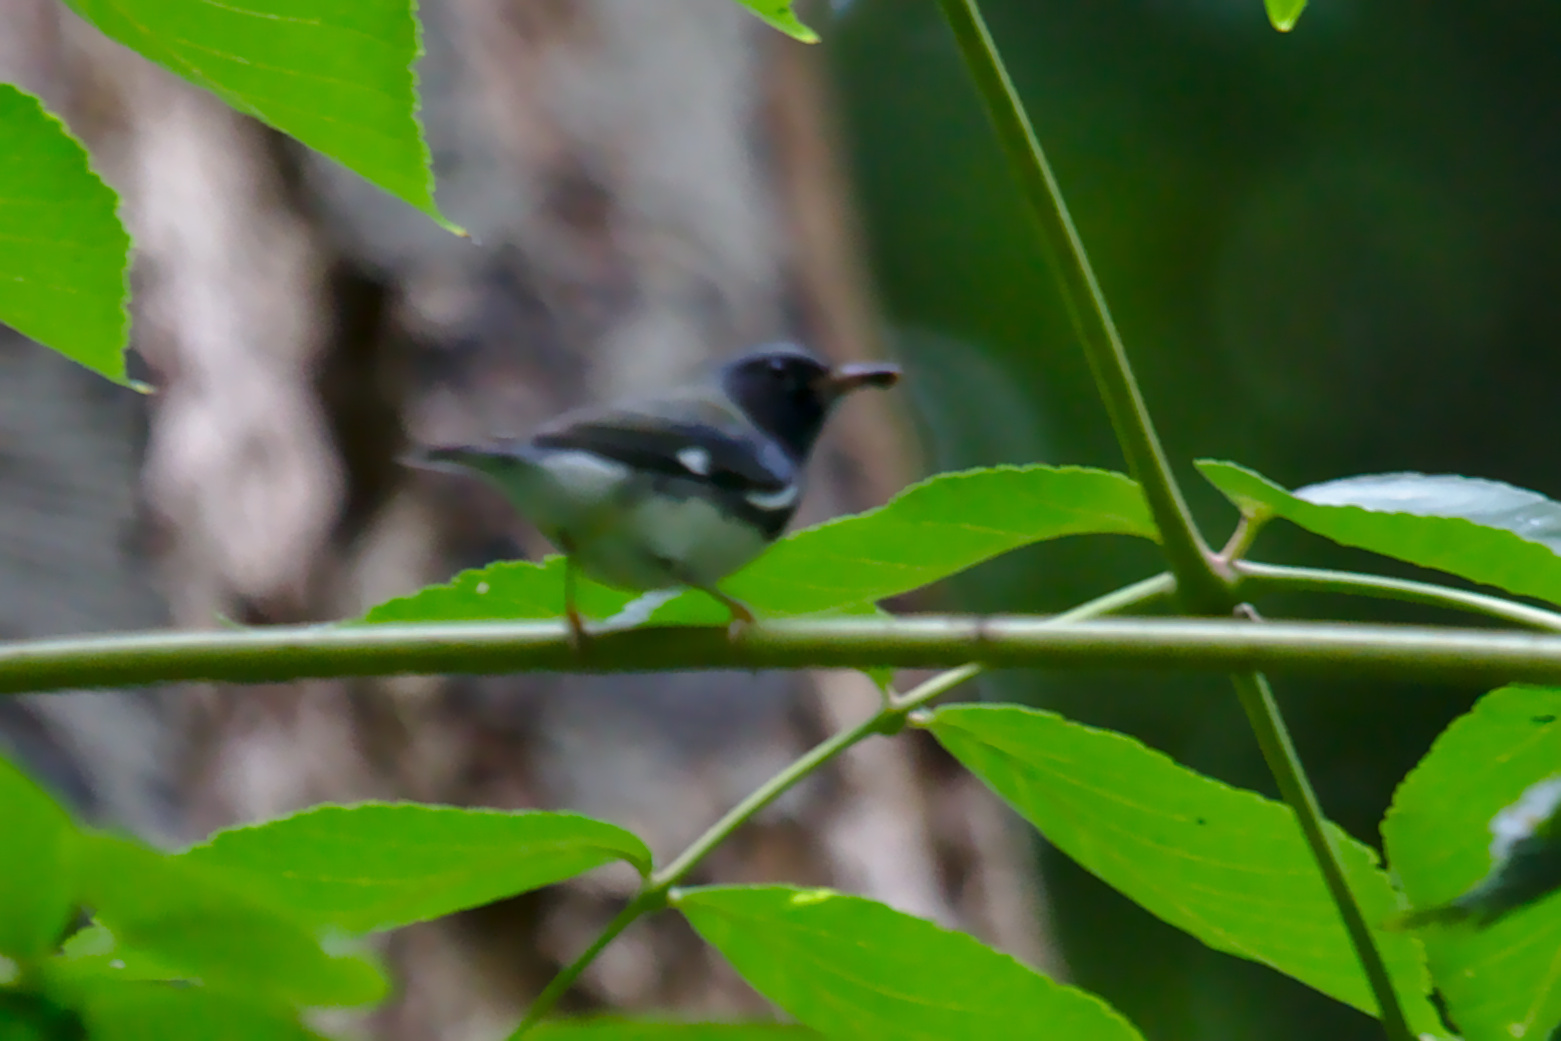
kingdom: Animalia
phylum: Chordata
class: Aves
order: Passeriformes
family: Parulidae
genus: Setophaga
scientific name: Setophaga caerulescens
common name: Black-throated blue warbler
